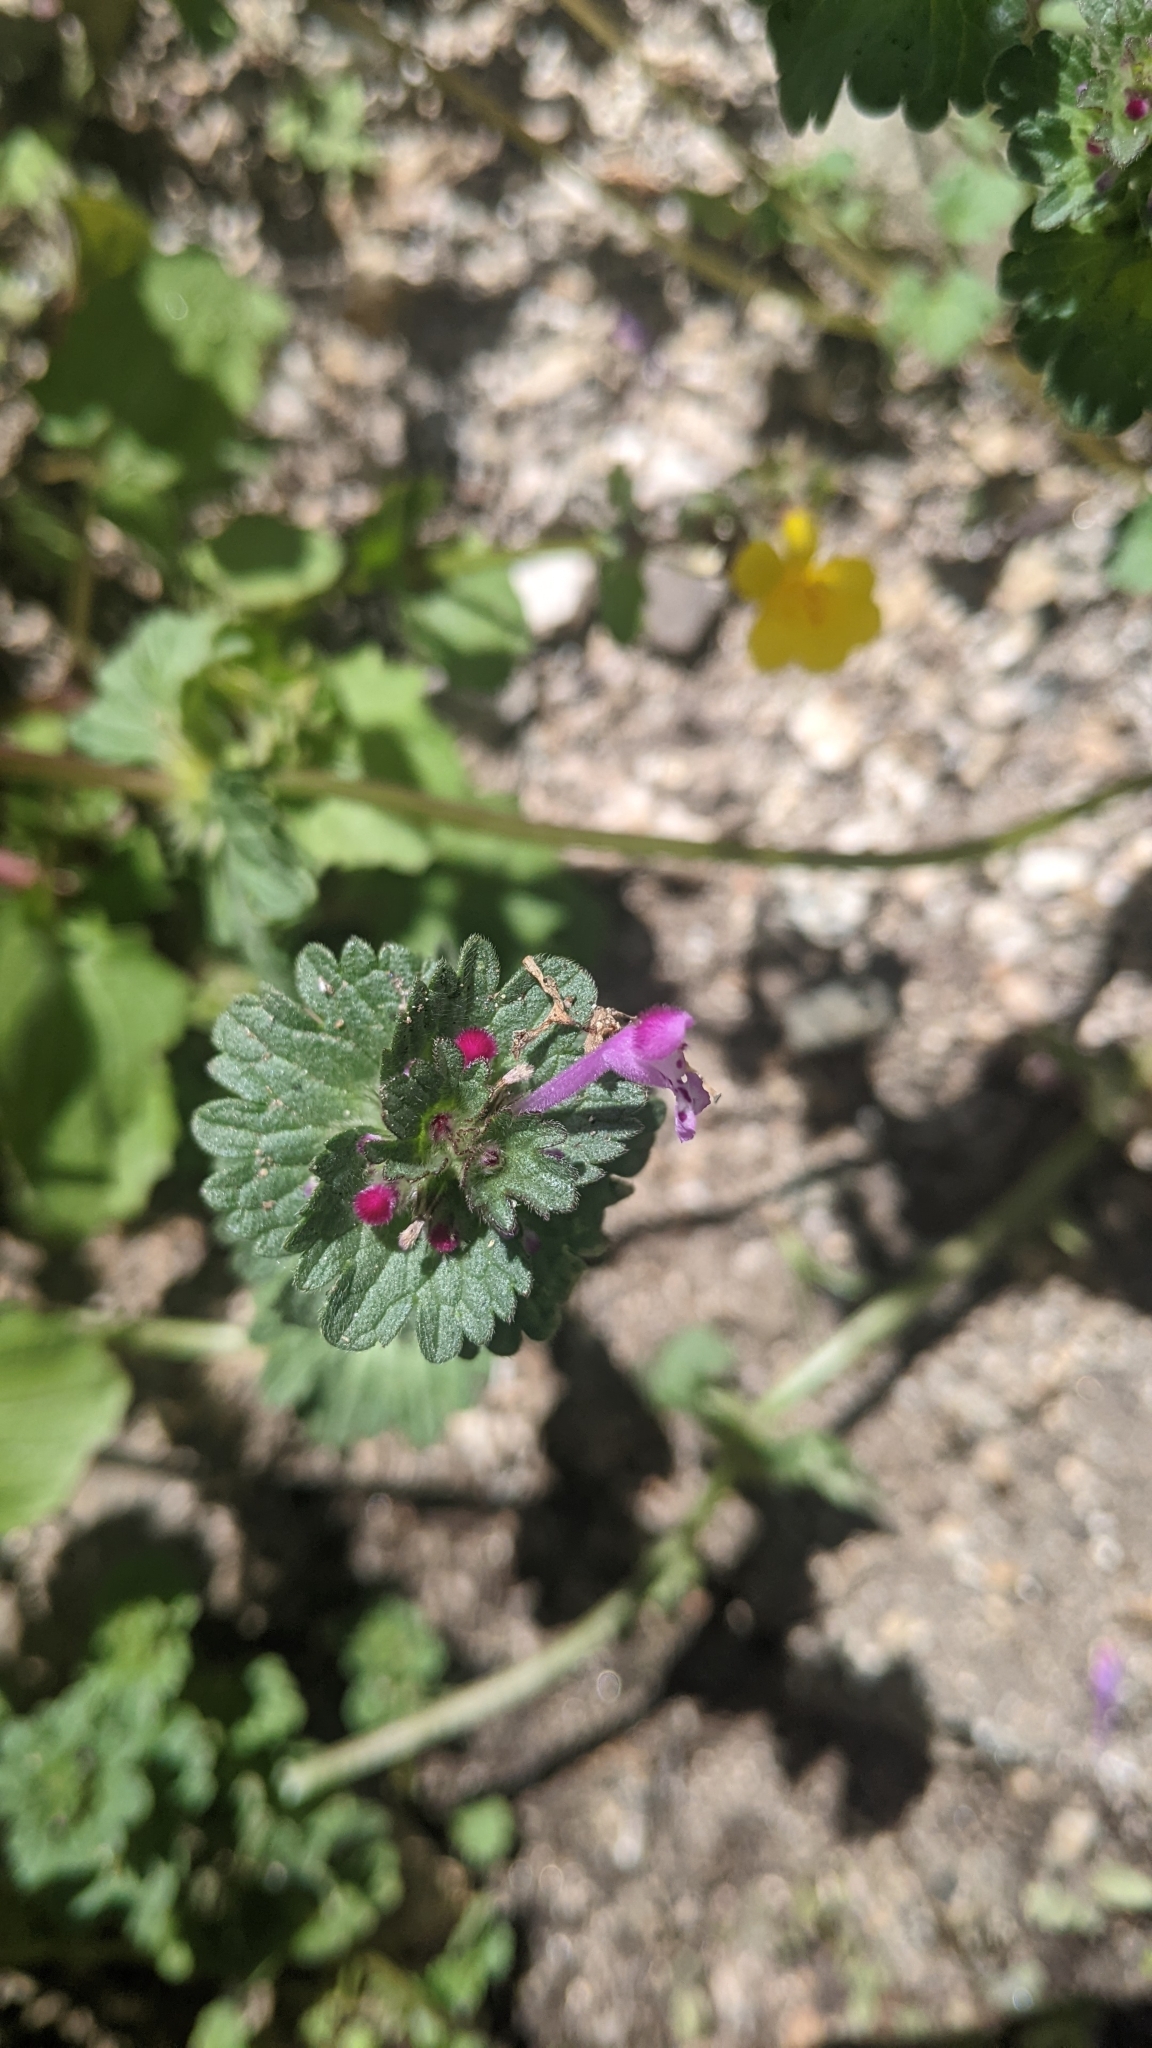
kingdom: Plantae
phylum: Tracheophyta
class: Magnoliopsida
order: Lamiales
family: Lamiaceae
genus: Lamium
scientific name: Lamium amplexicaule
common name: Henbit dead-nettle
